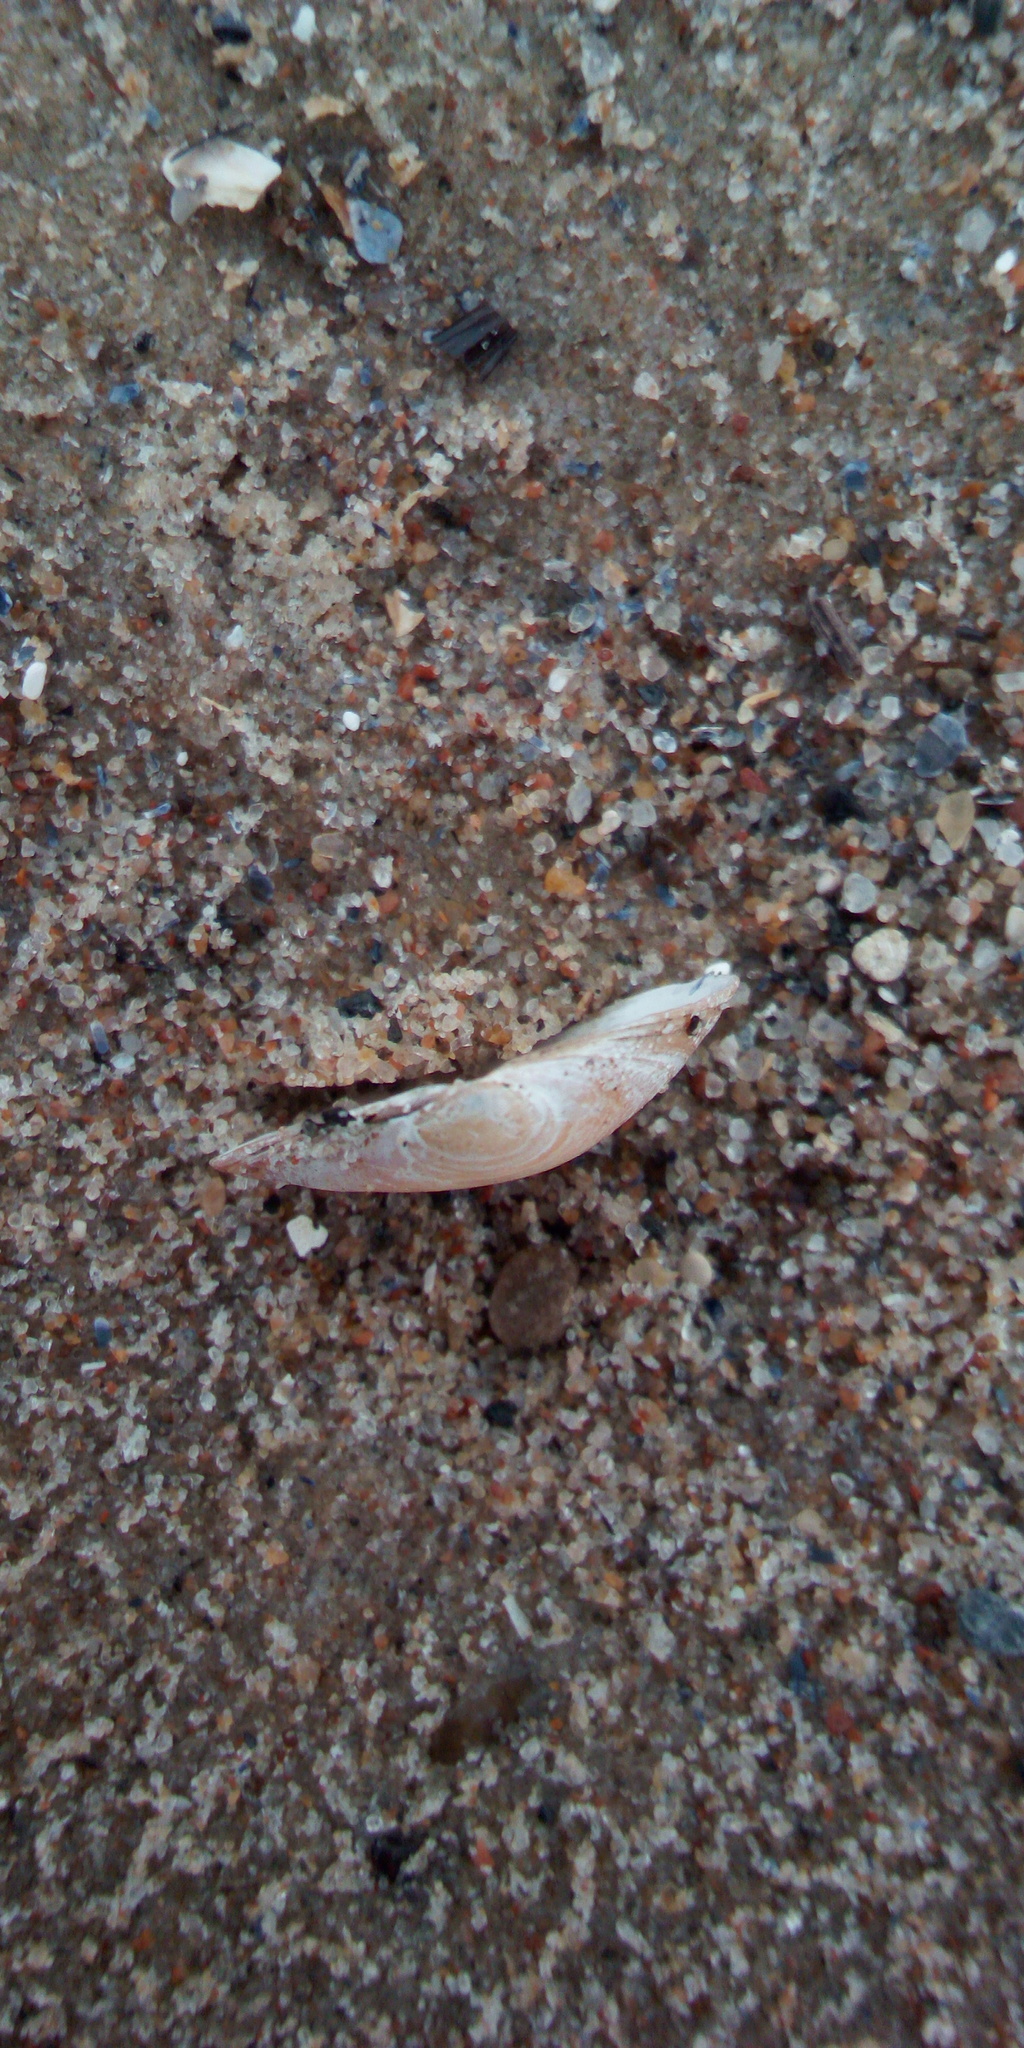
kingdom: Animalia
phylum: Mollusca
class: Bivalvia
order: Cardiida
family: Tellinidae
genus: Macoma
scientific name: Macoma balthica
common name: Baltic tellin
